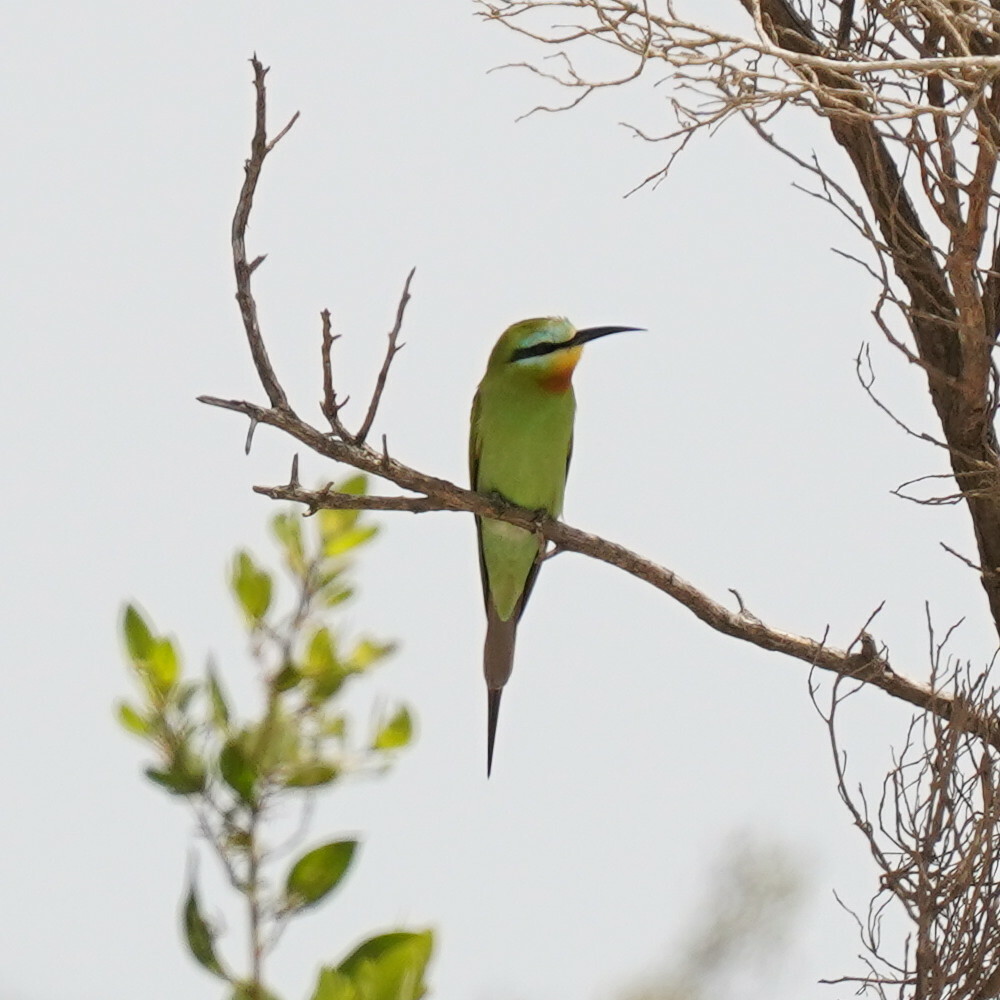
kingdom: Animalia
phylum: Chordata
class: Aves
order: Coraciiformes
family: Meropidae
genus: Merops
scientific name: Merops persicus
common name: Blue-cheeked bee-eater
